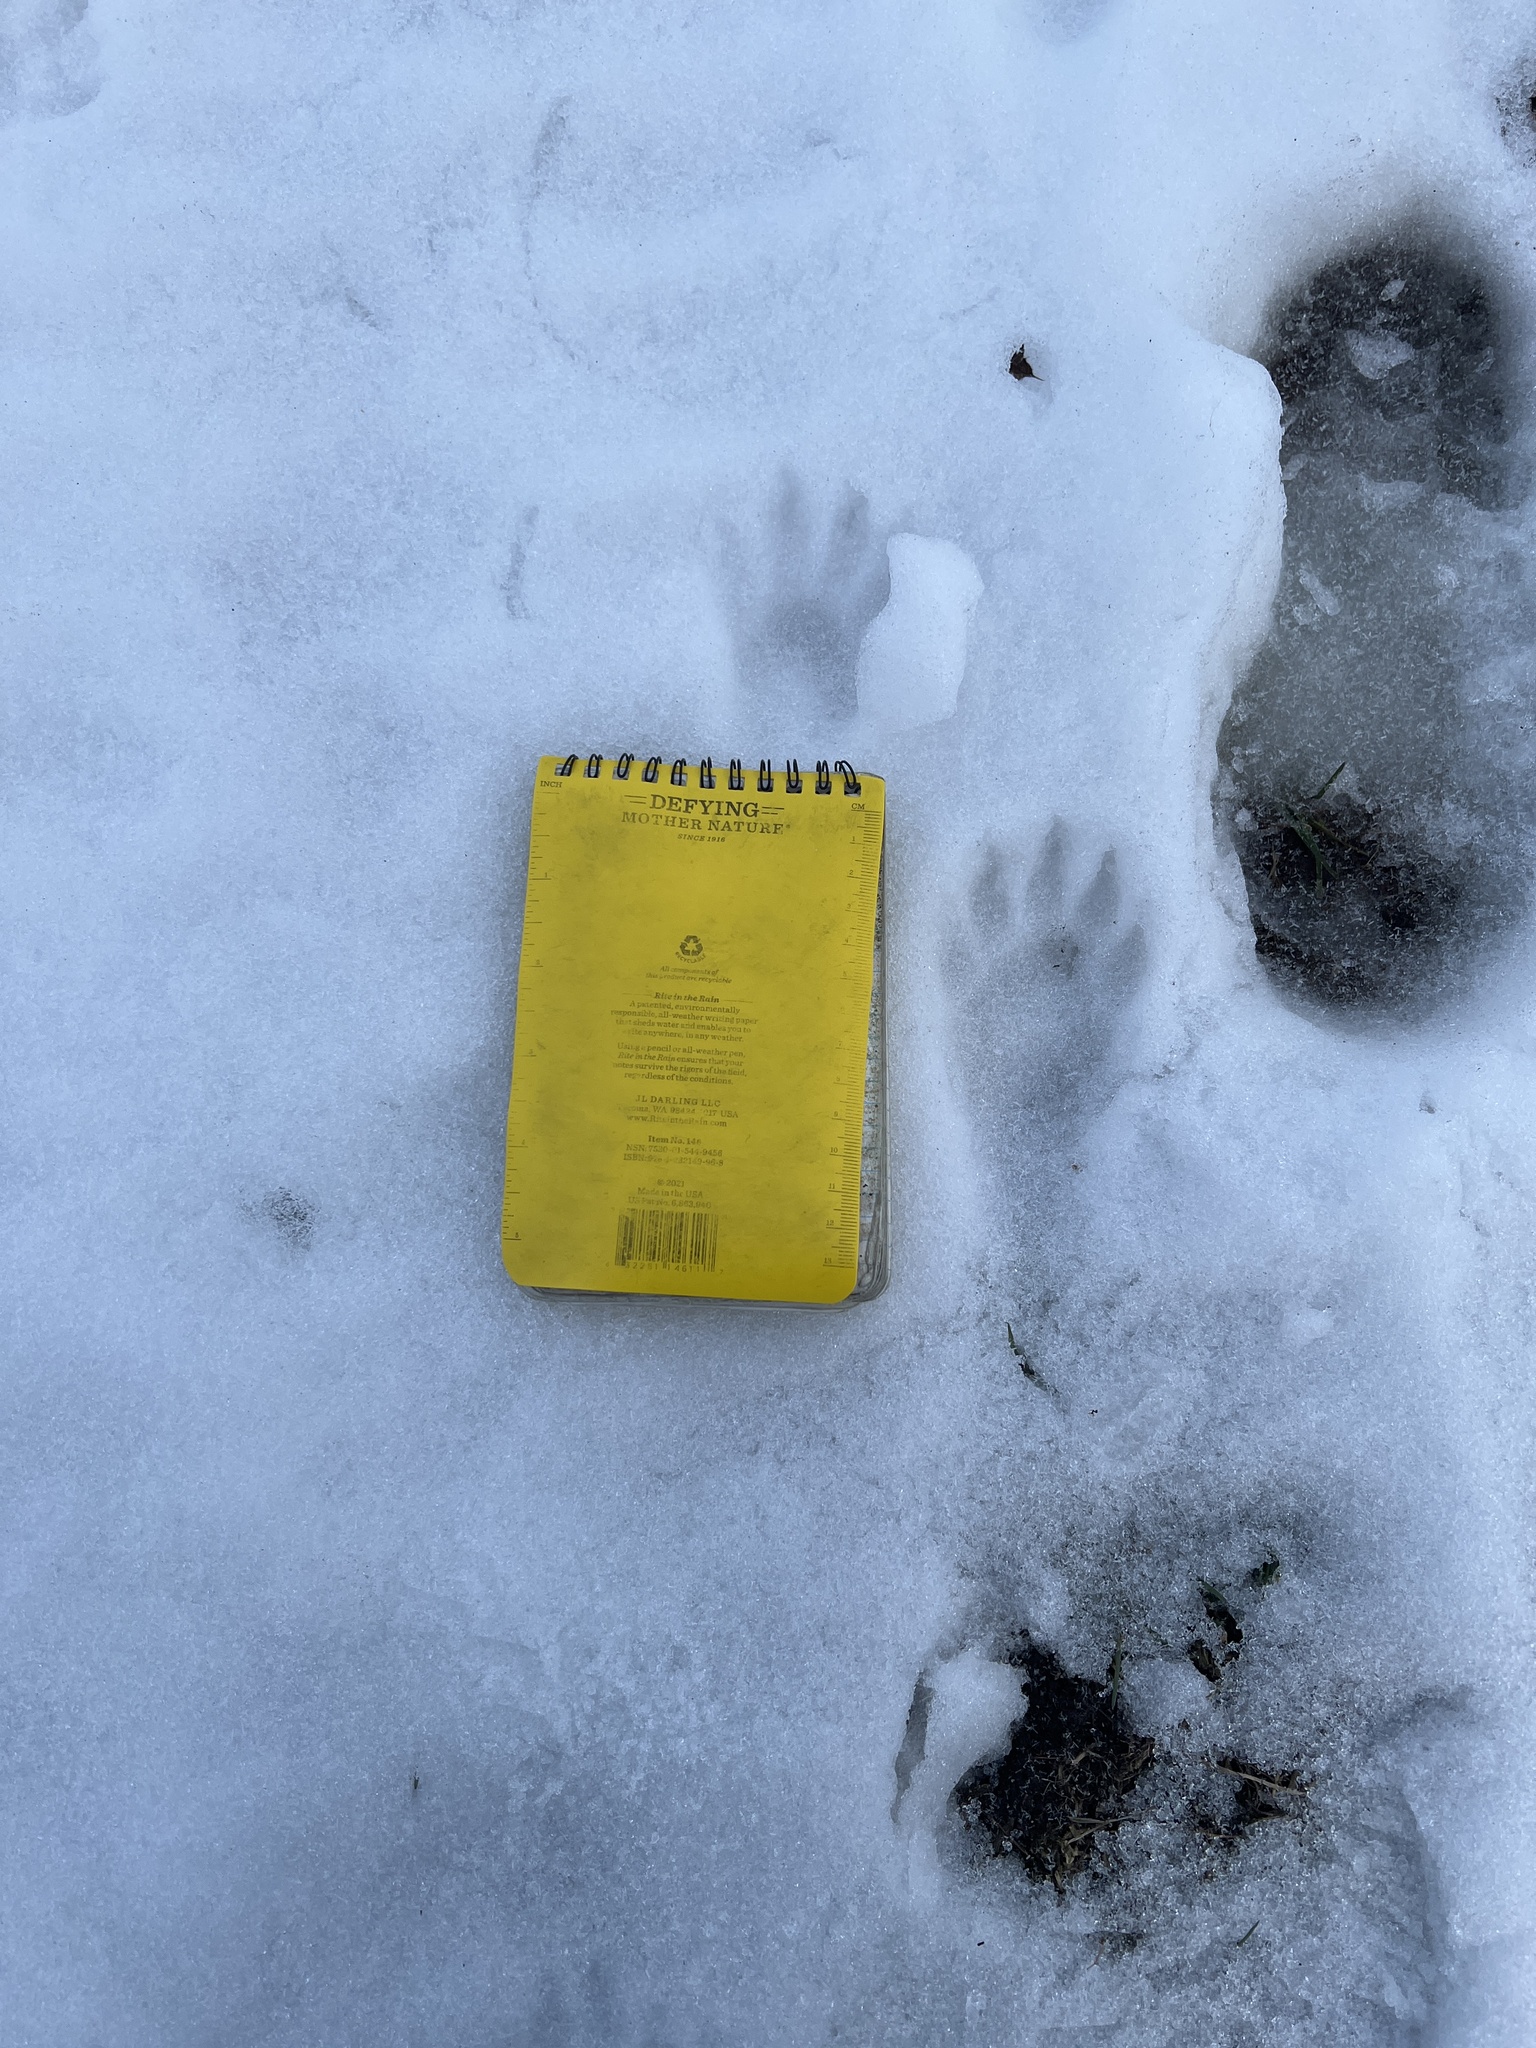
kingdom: Animalia
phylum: Chordata
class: Mammalia
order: Carnivora
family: Procyonidae
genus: Procyon
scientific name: Procyon lotor
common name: Raccoon
